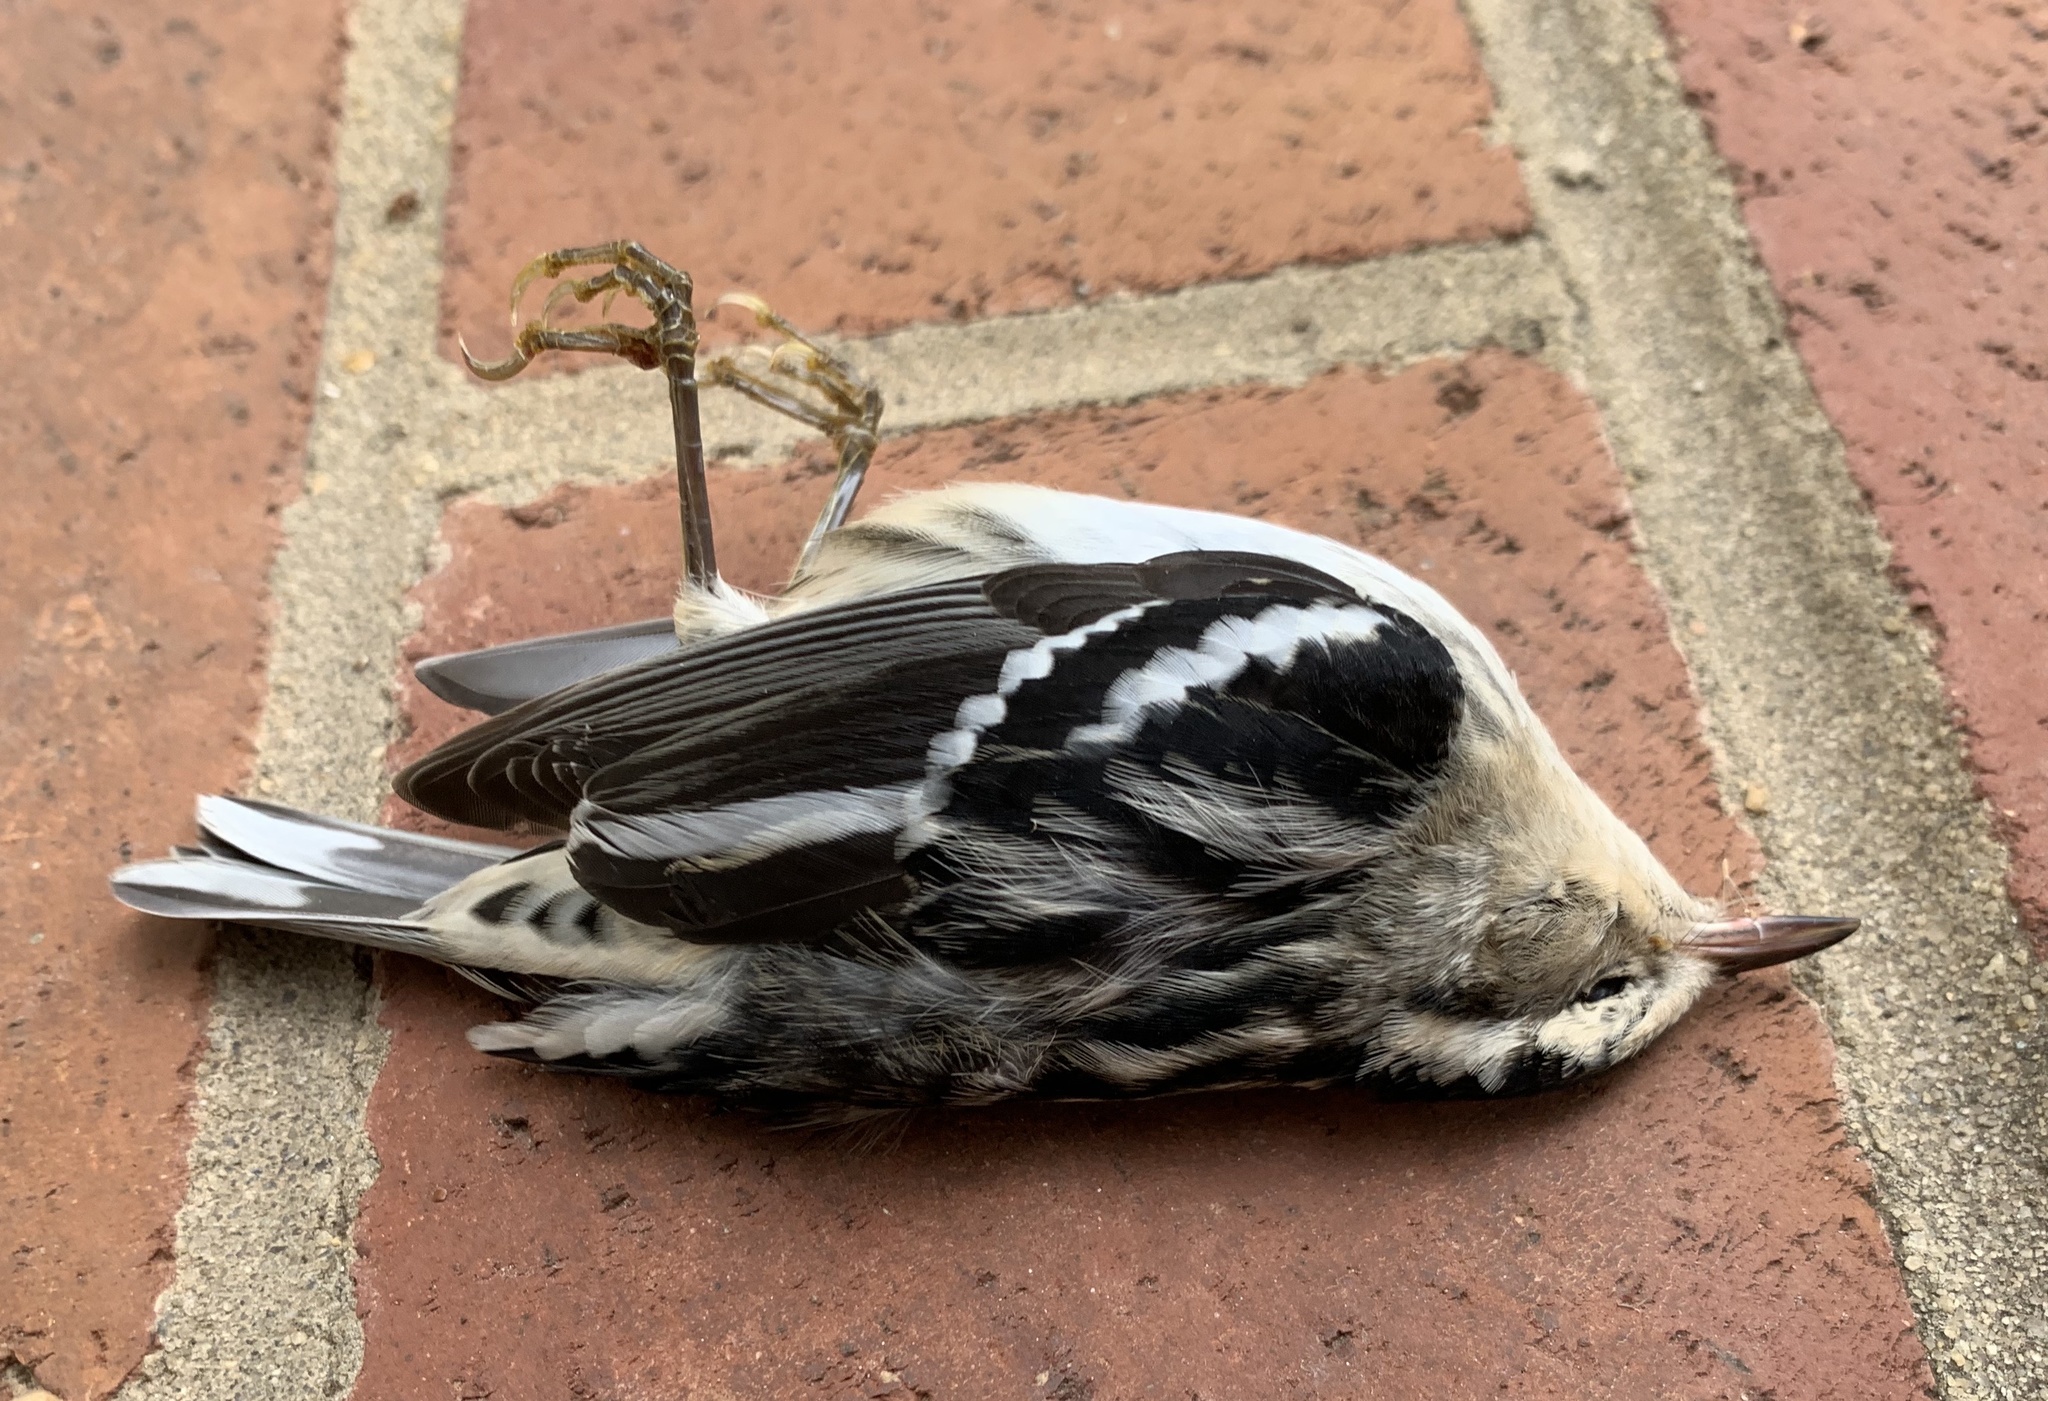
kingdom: Animalia
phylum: Chordata
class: Aves
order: Passeriformes
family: Parulidae
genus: Mniotilta
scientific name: Mniotilta varia
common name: Black-and-white warbler
